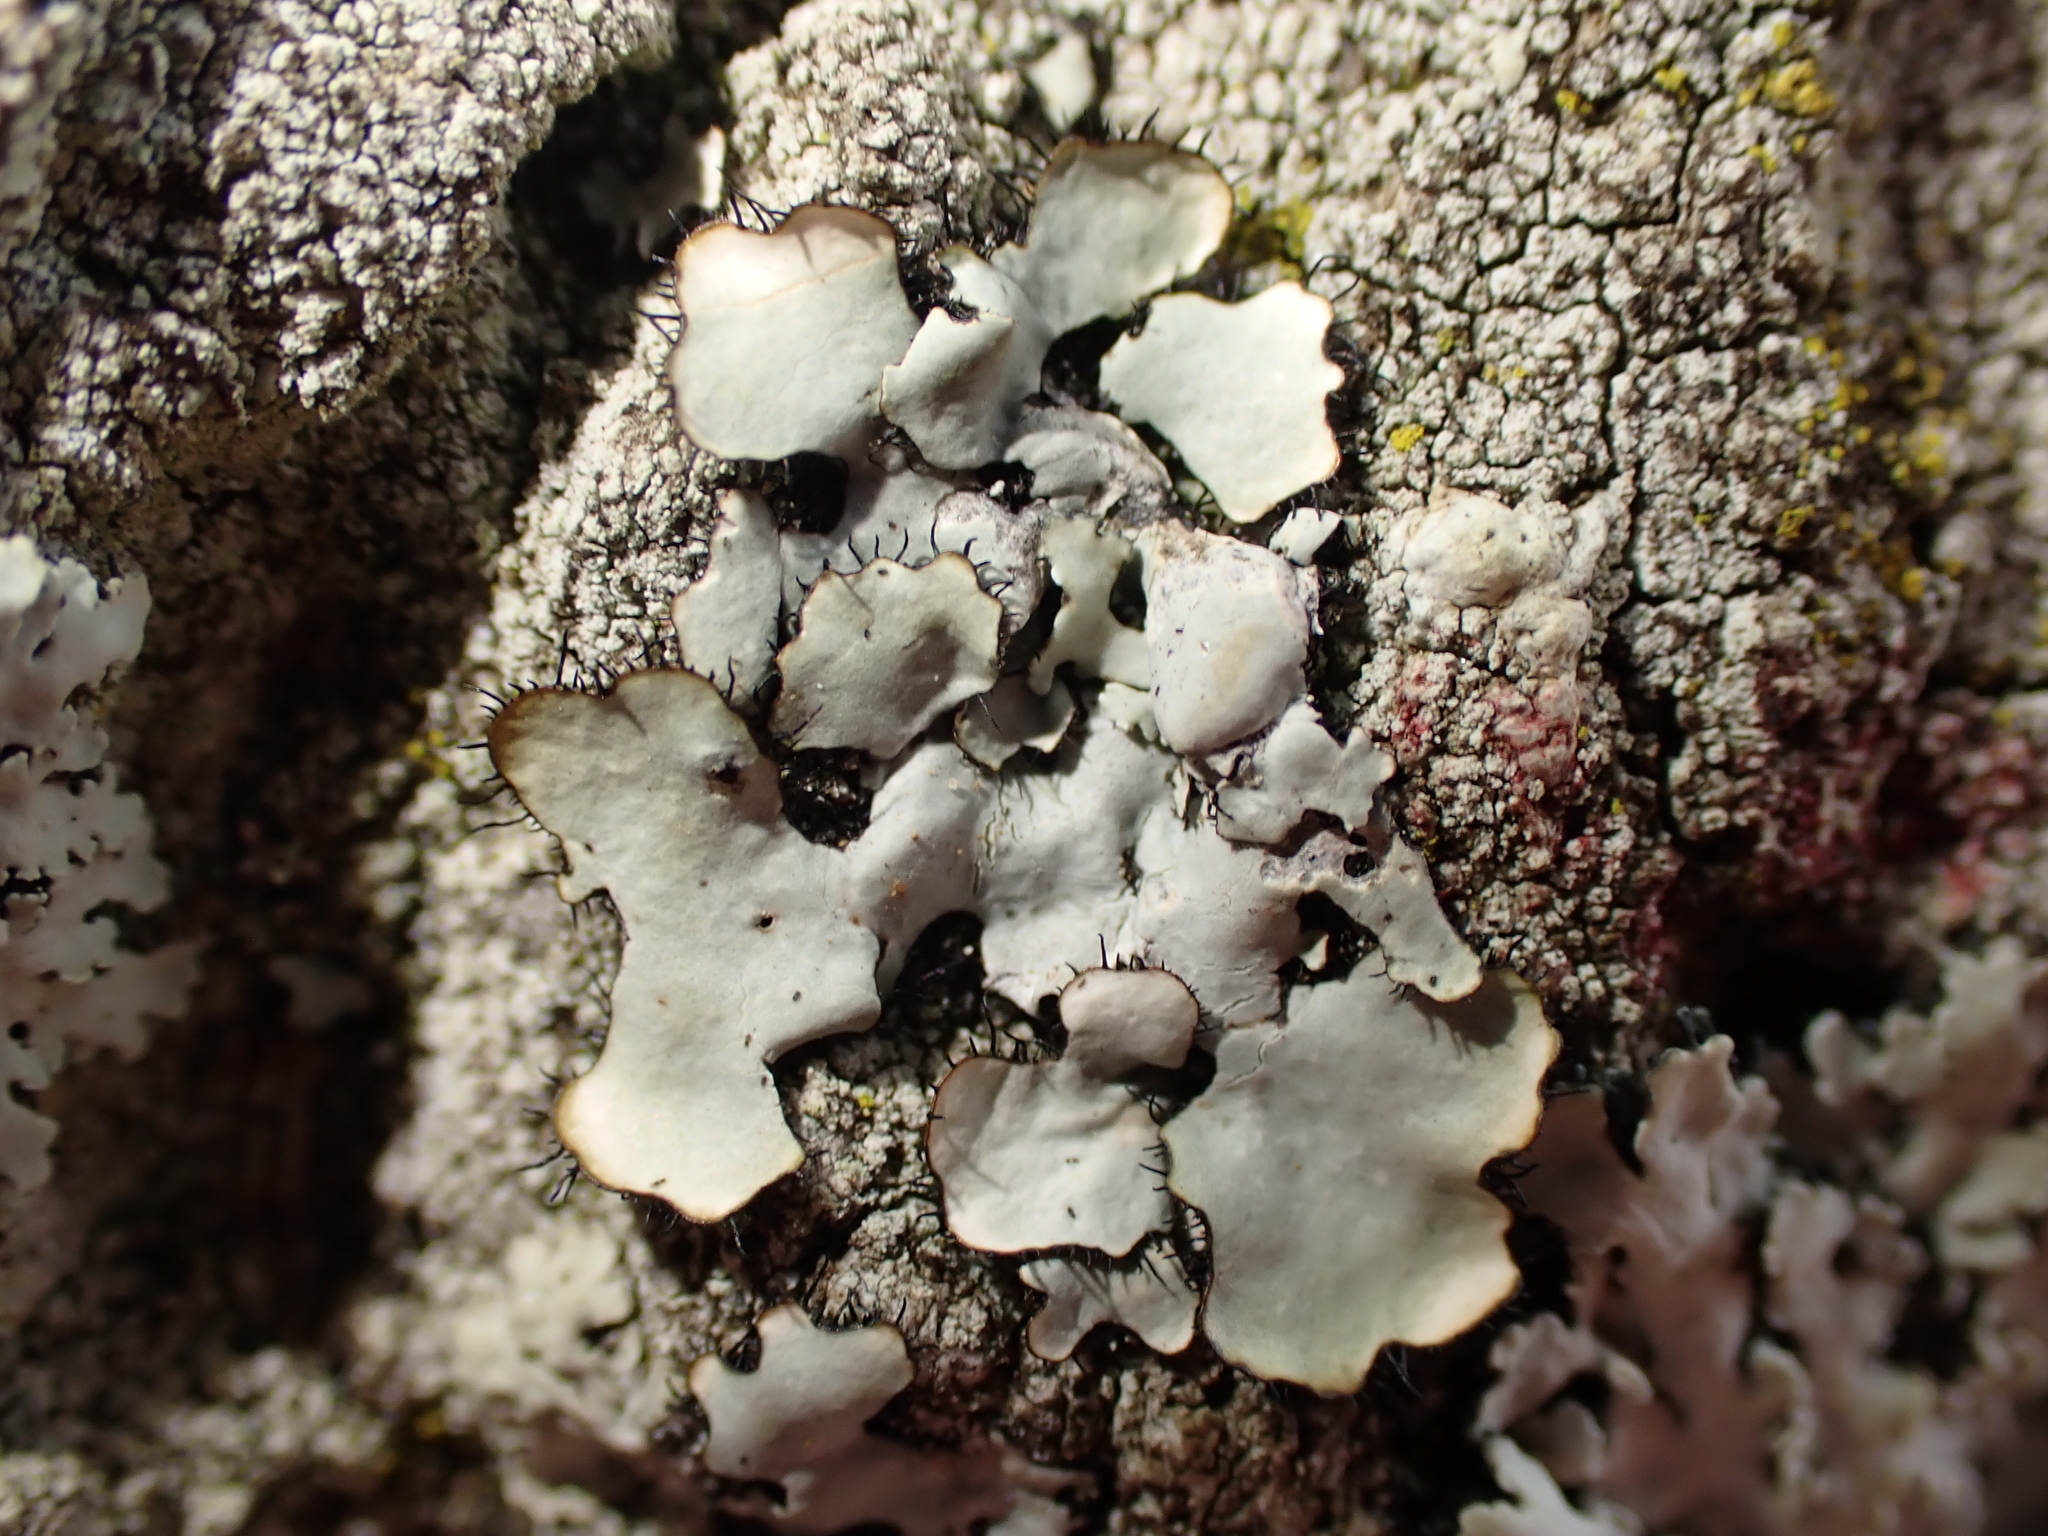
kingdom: Fungi
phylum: Ascomycota
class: Lecanoromycetes
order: Lecanorales
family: Parmeliaceae
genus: Parmotrema
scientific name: Parmotrema reticulatum
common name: Black sheet lichen
